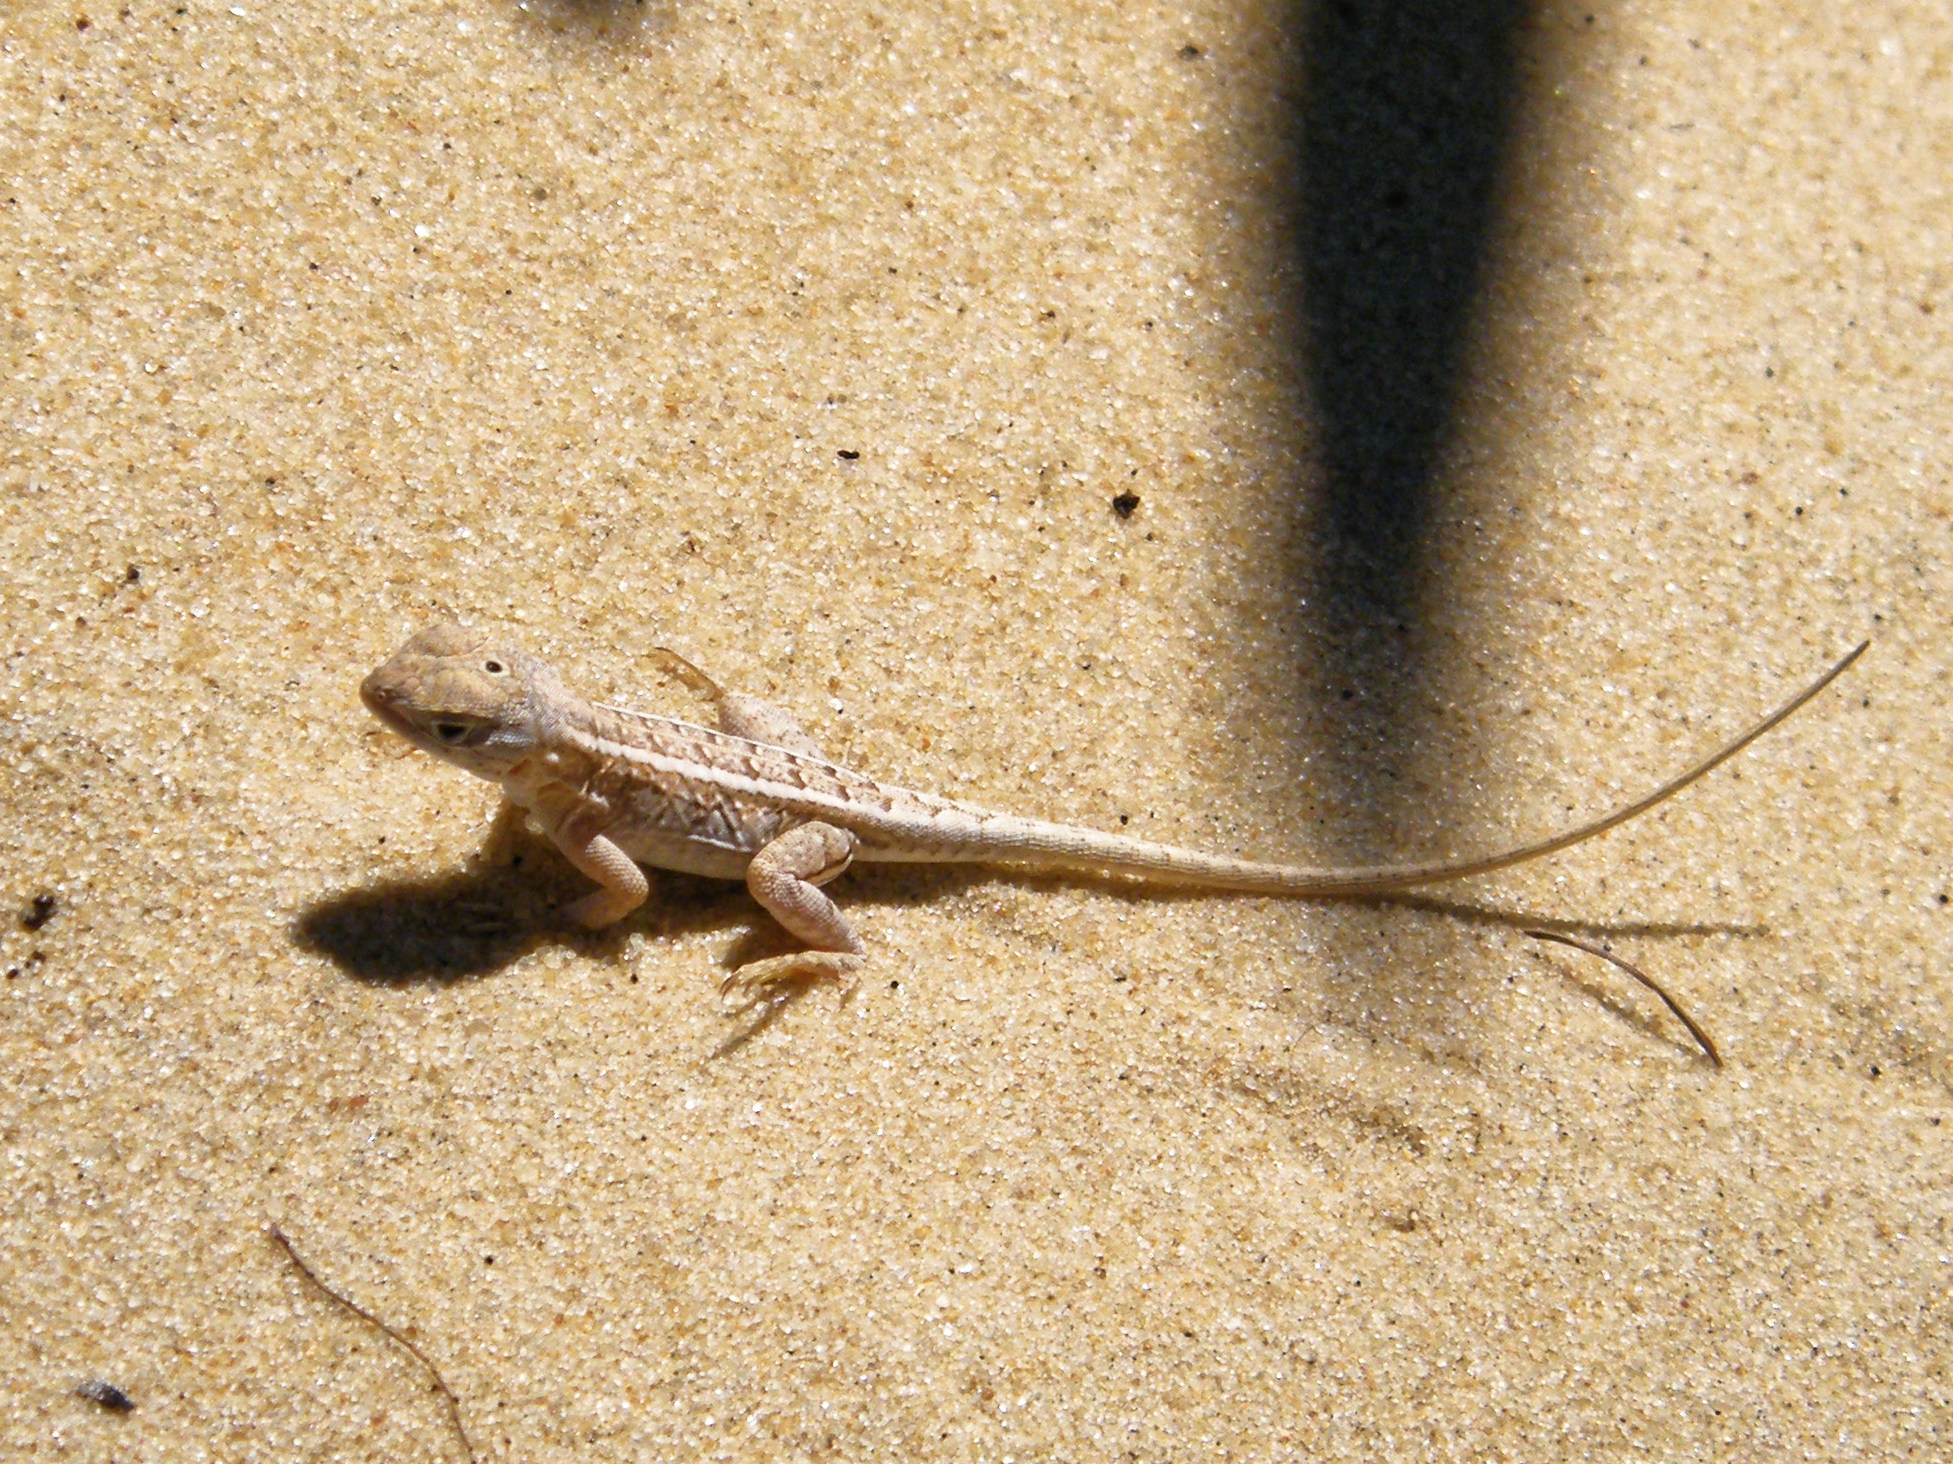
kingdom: Animalia
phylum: Chordata
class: Squamata
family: Opluridae
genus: Chalarodon
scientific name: Chalarodon madagascariensis
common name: Madagascar iguana
